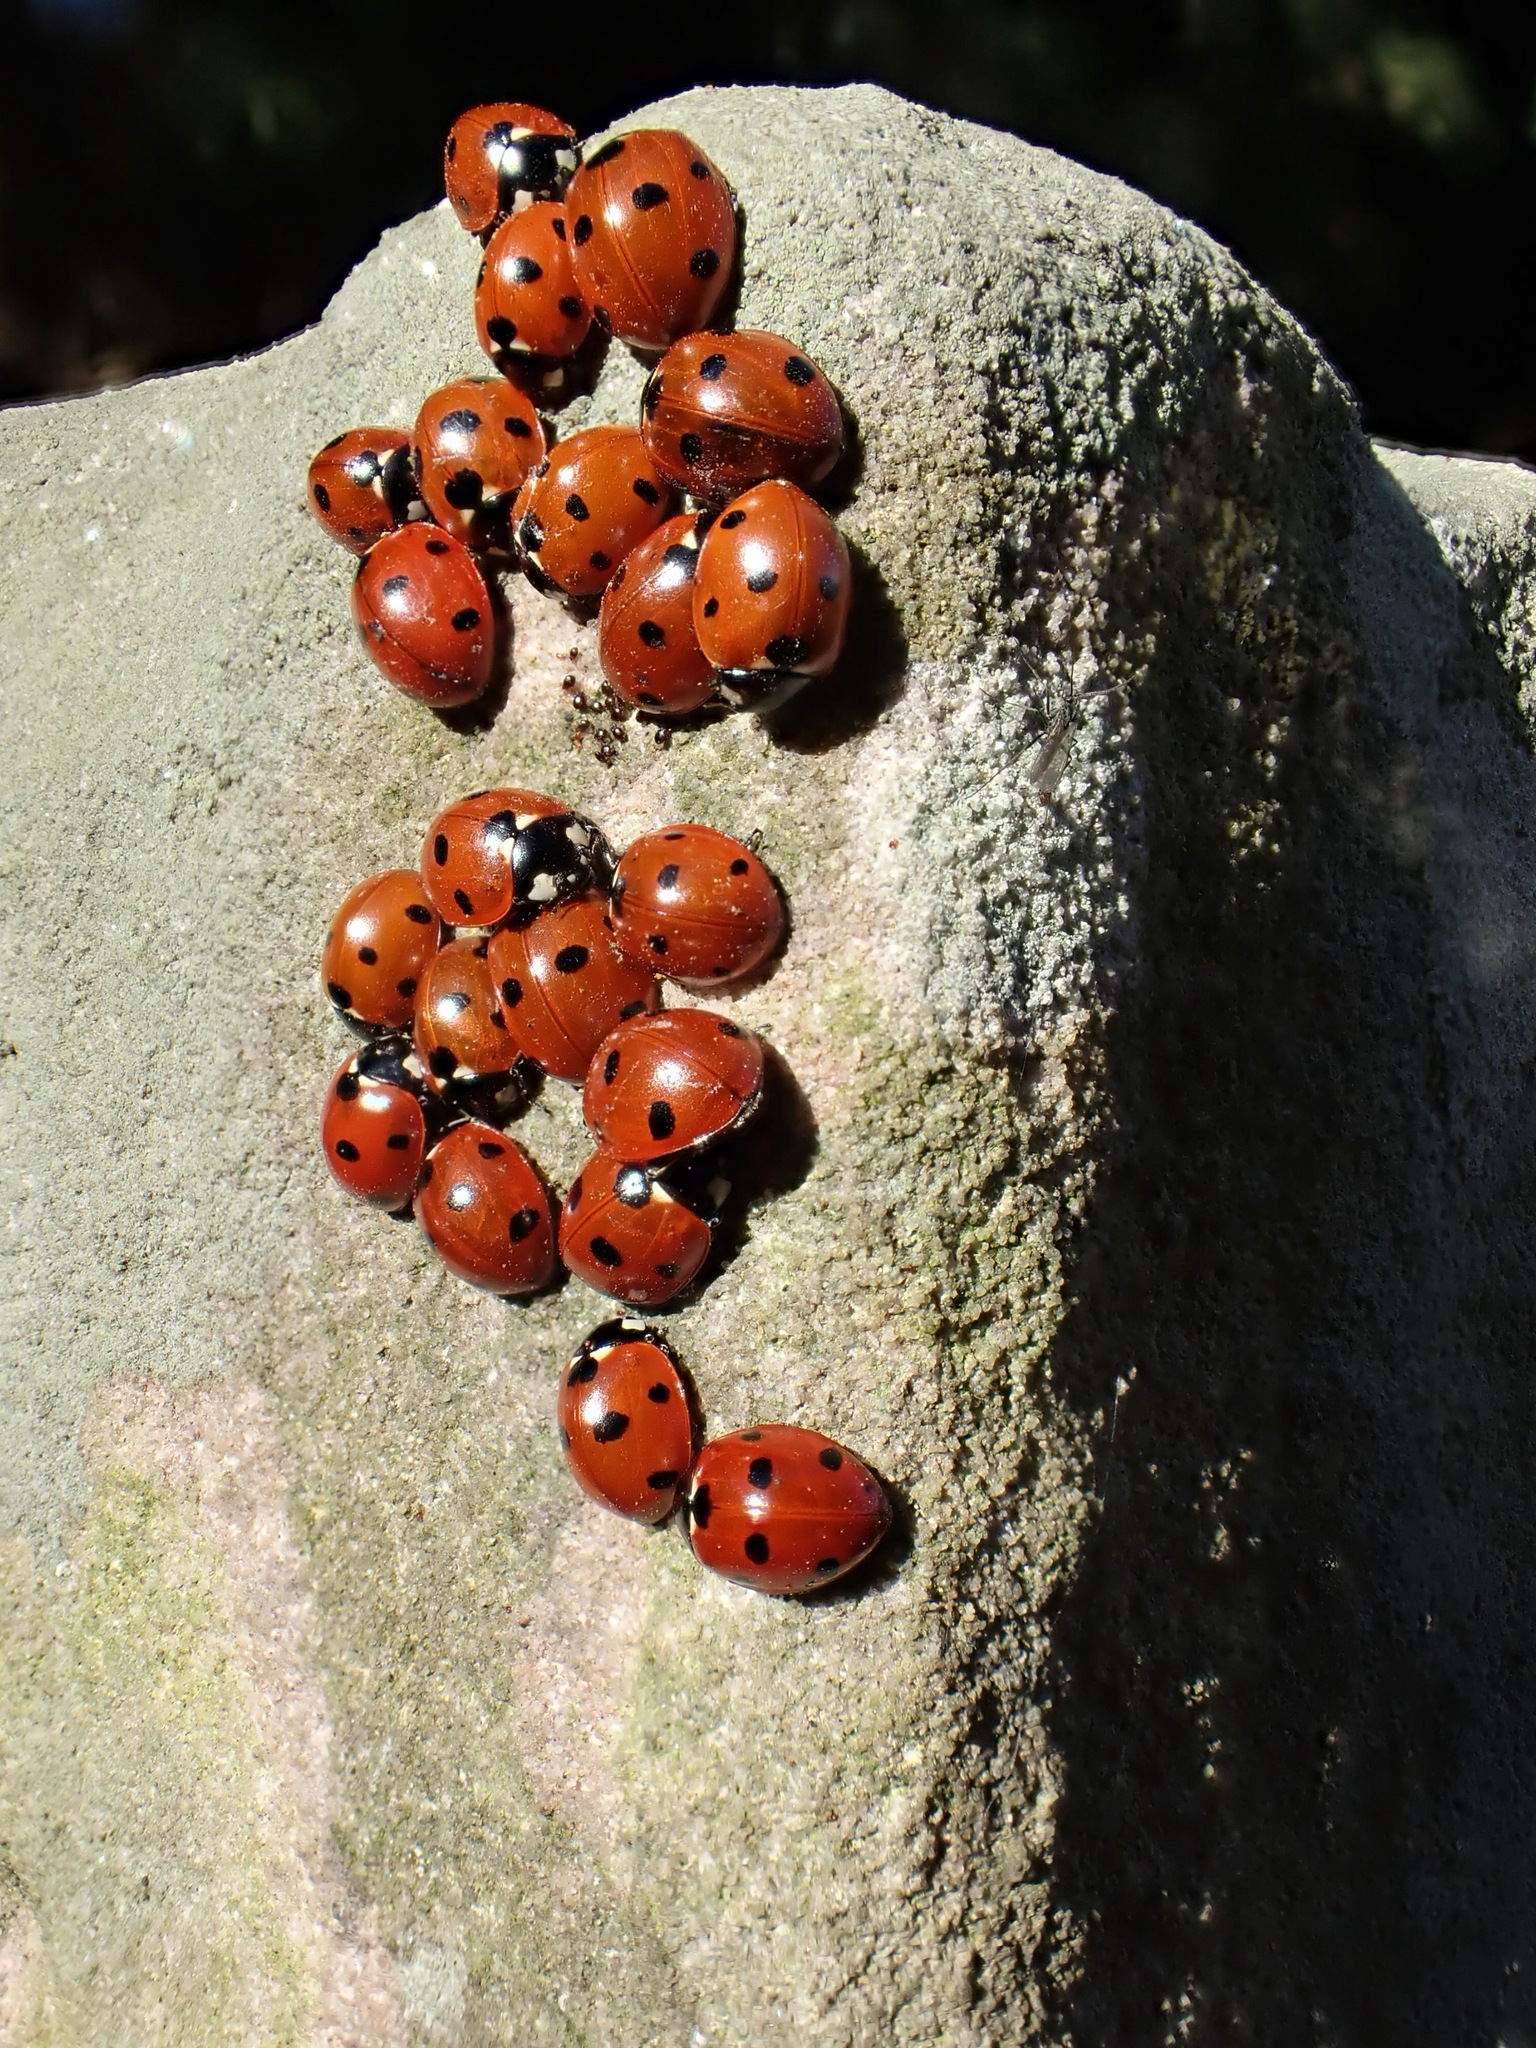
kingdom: Animalia
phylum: Arthropoda
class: Insecta
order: Coleoptera
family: Coccinellidae
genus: Coccinella
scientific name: Coccinella septempunctata
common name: Sevenspotted lady beetle
